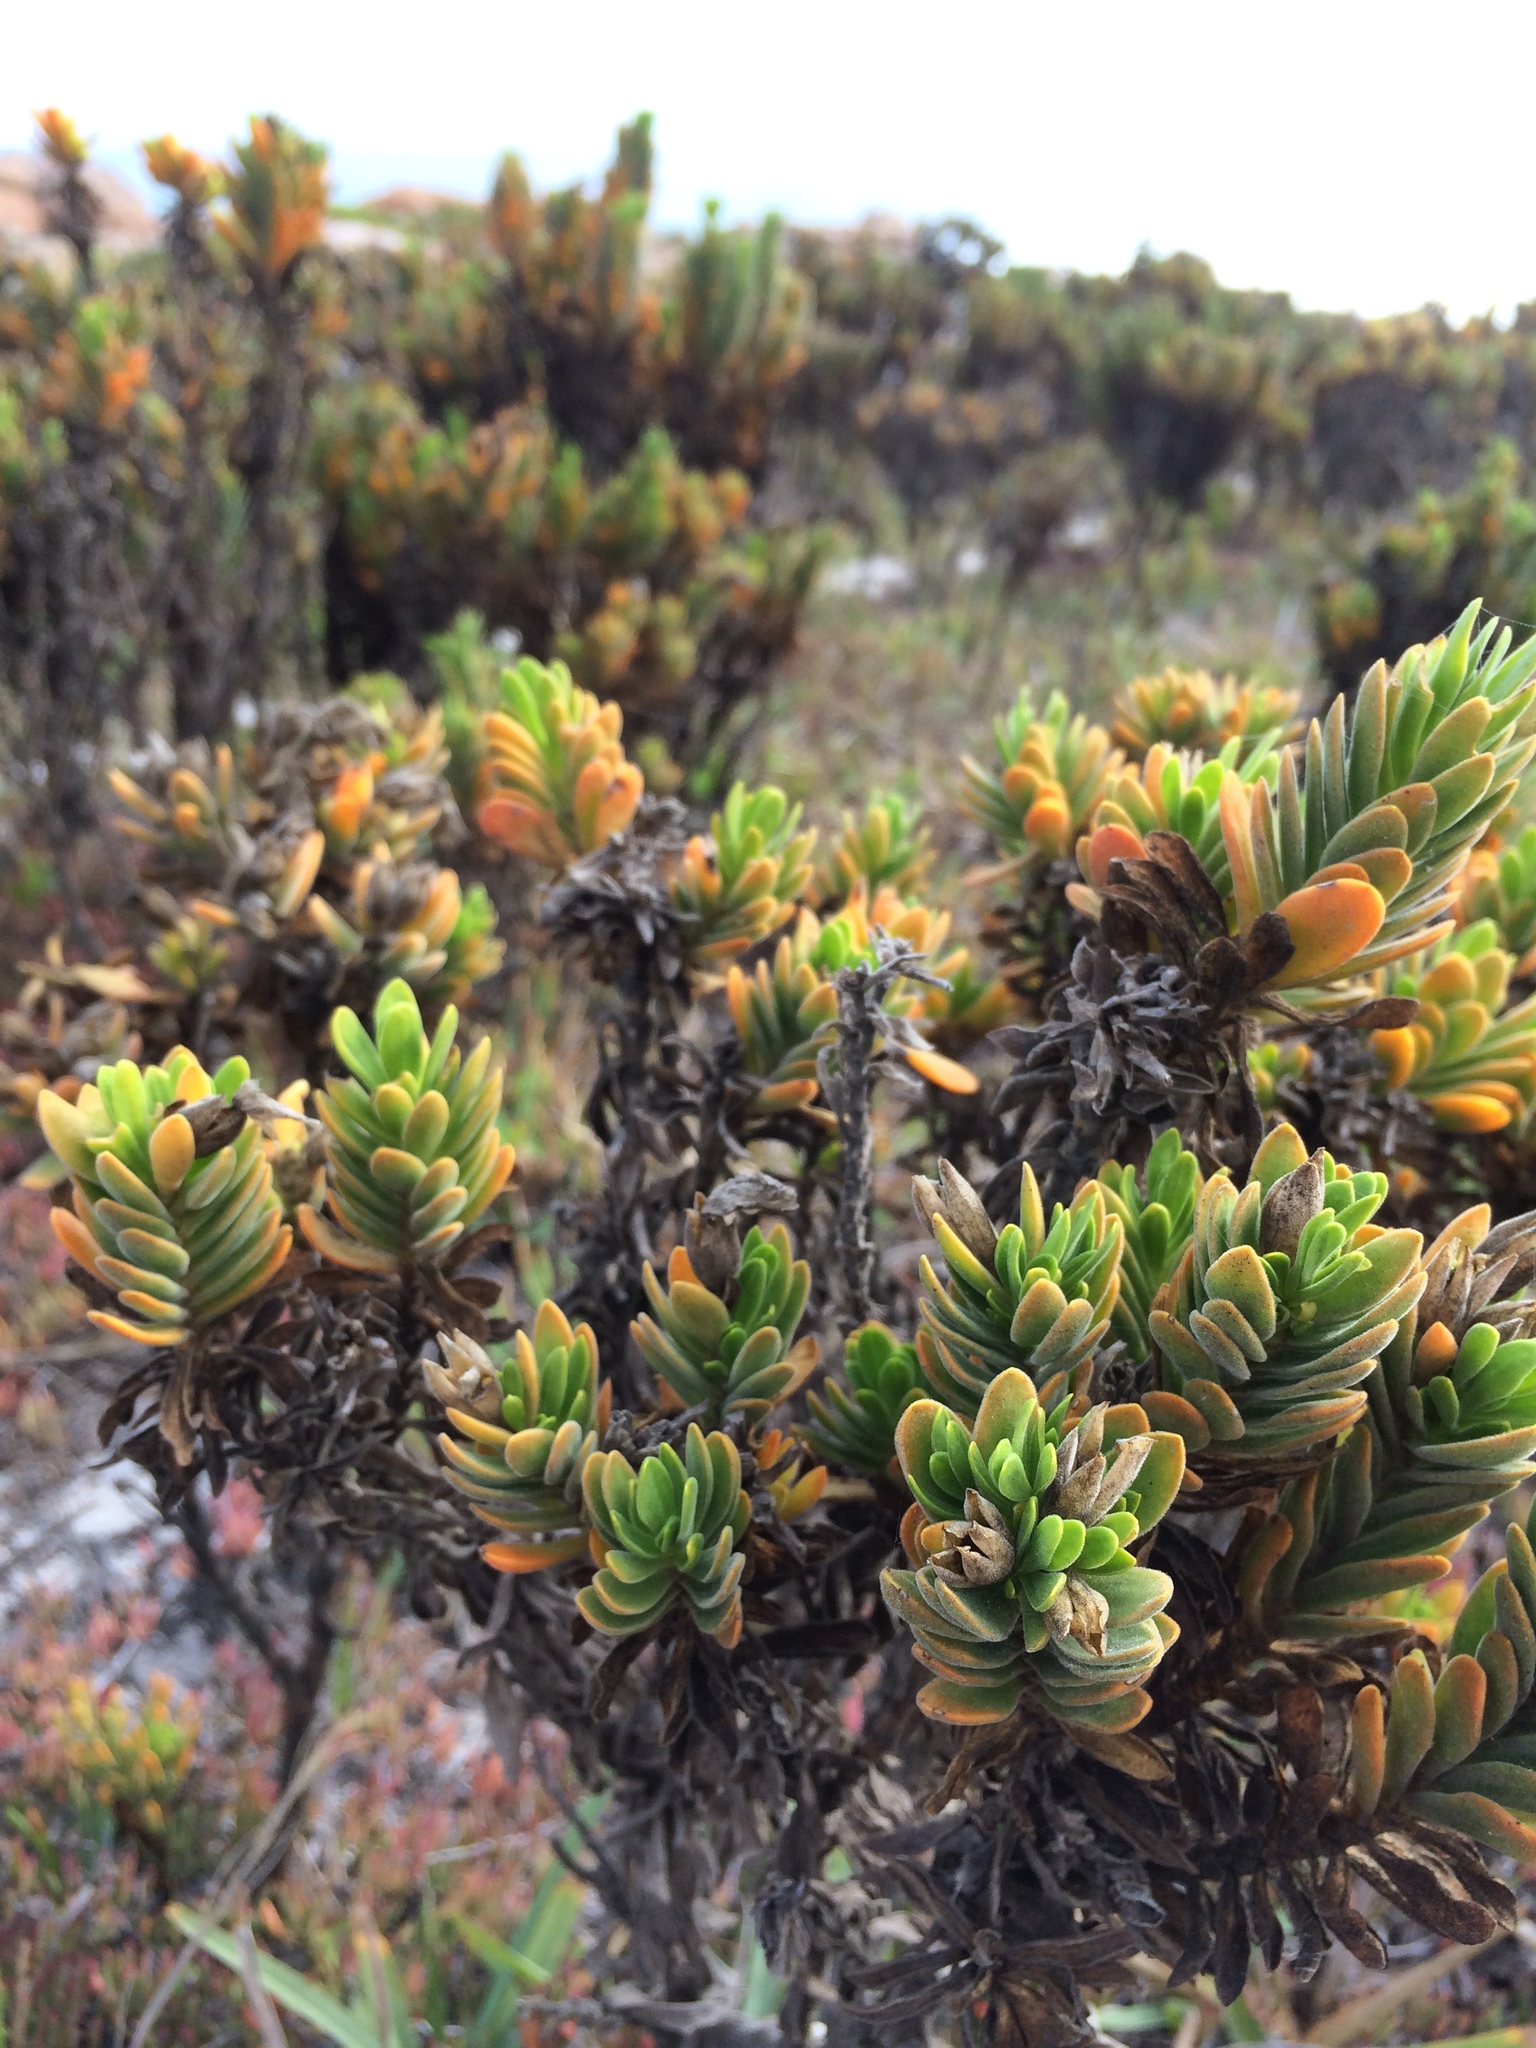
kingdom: Plantae
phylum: Tracheophyta
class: Magnoliopsida
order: Gentianales
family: Gentianaceae
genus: Orphium
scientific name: Orphium frutescens
